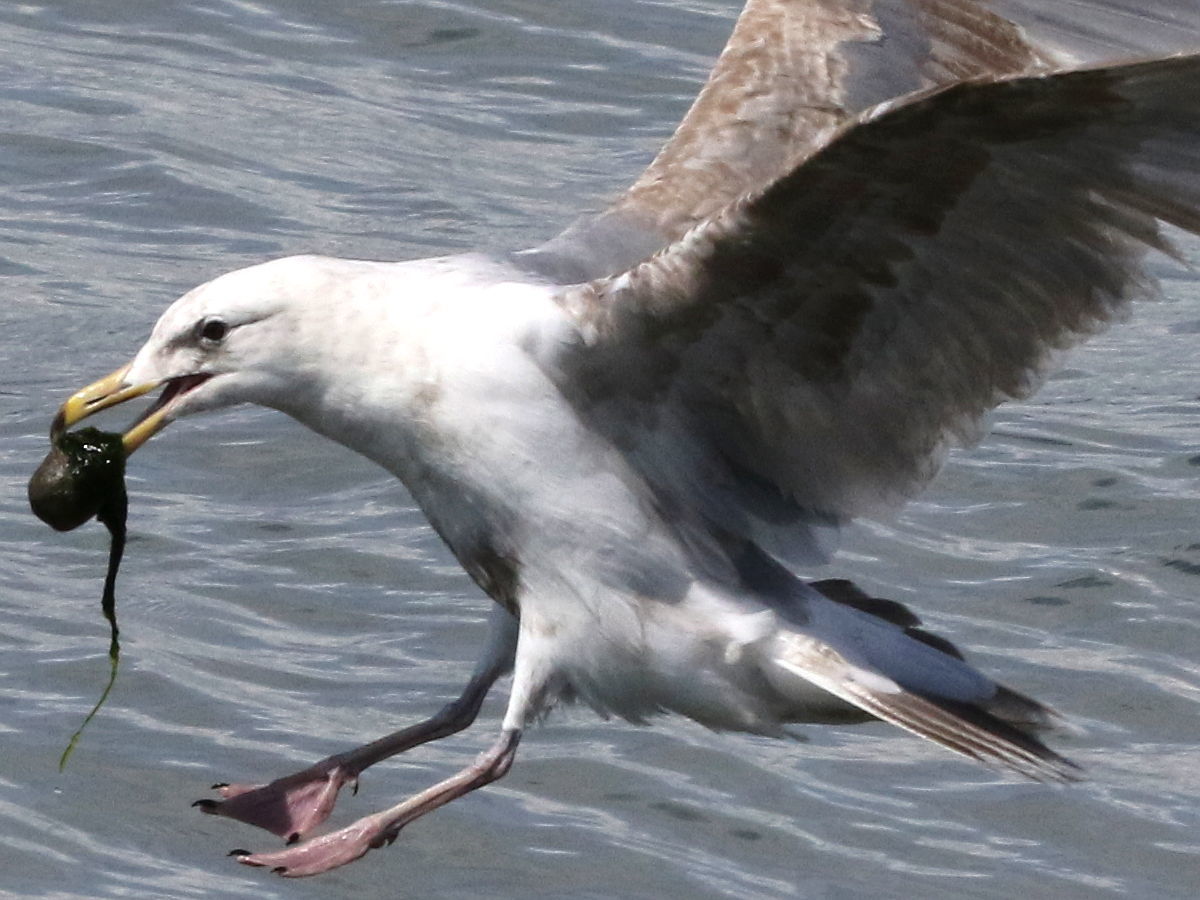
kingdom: Animalia
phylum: Chordata
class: Aves
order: Charadriiformes
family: Laridae
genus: Larus
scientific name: Larus
